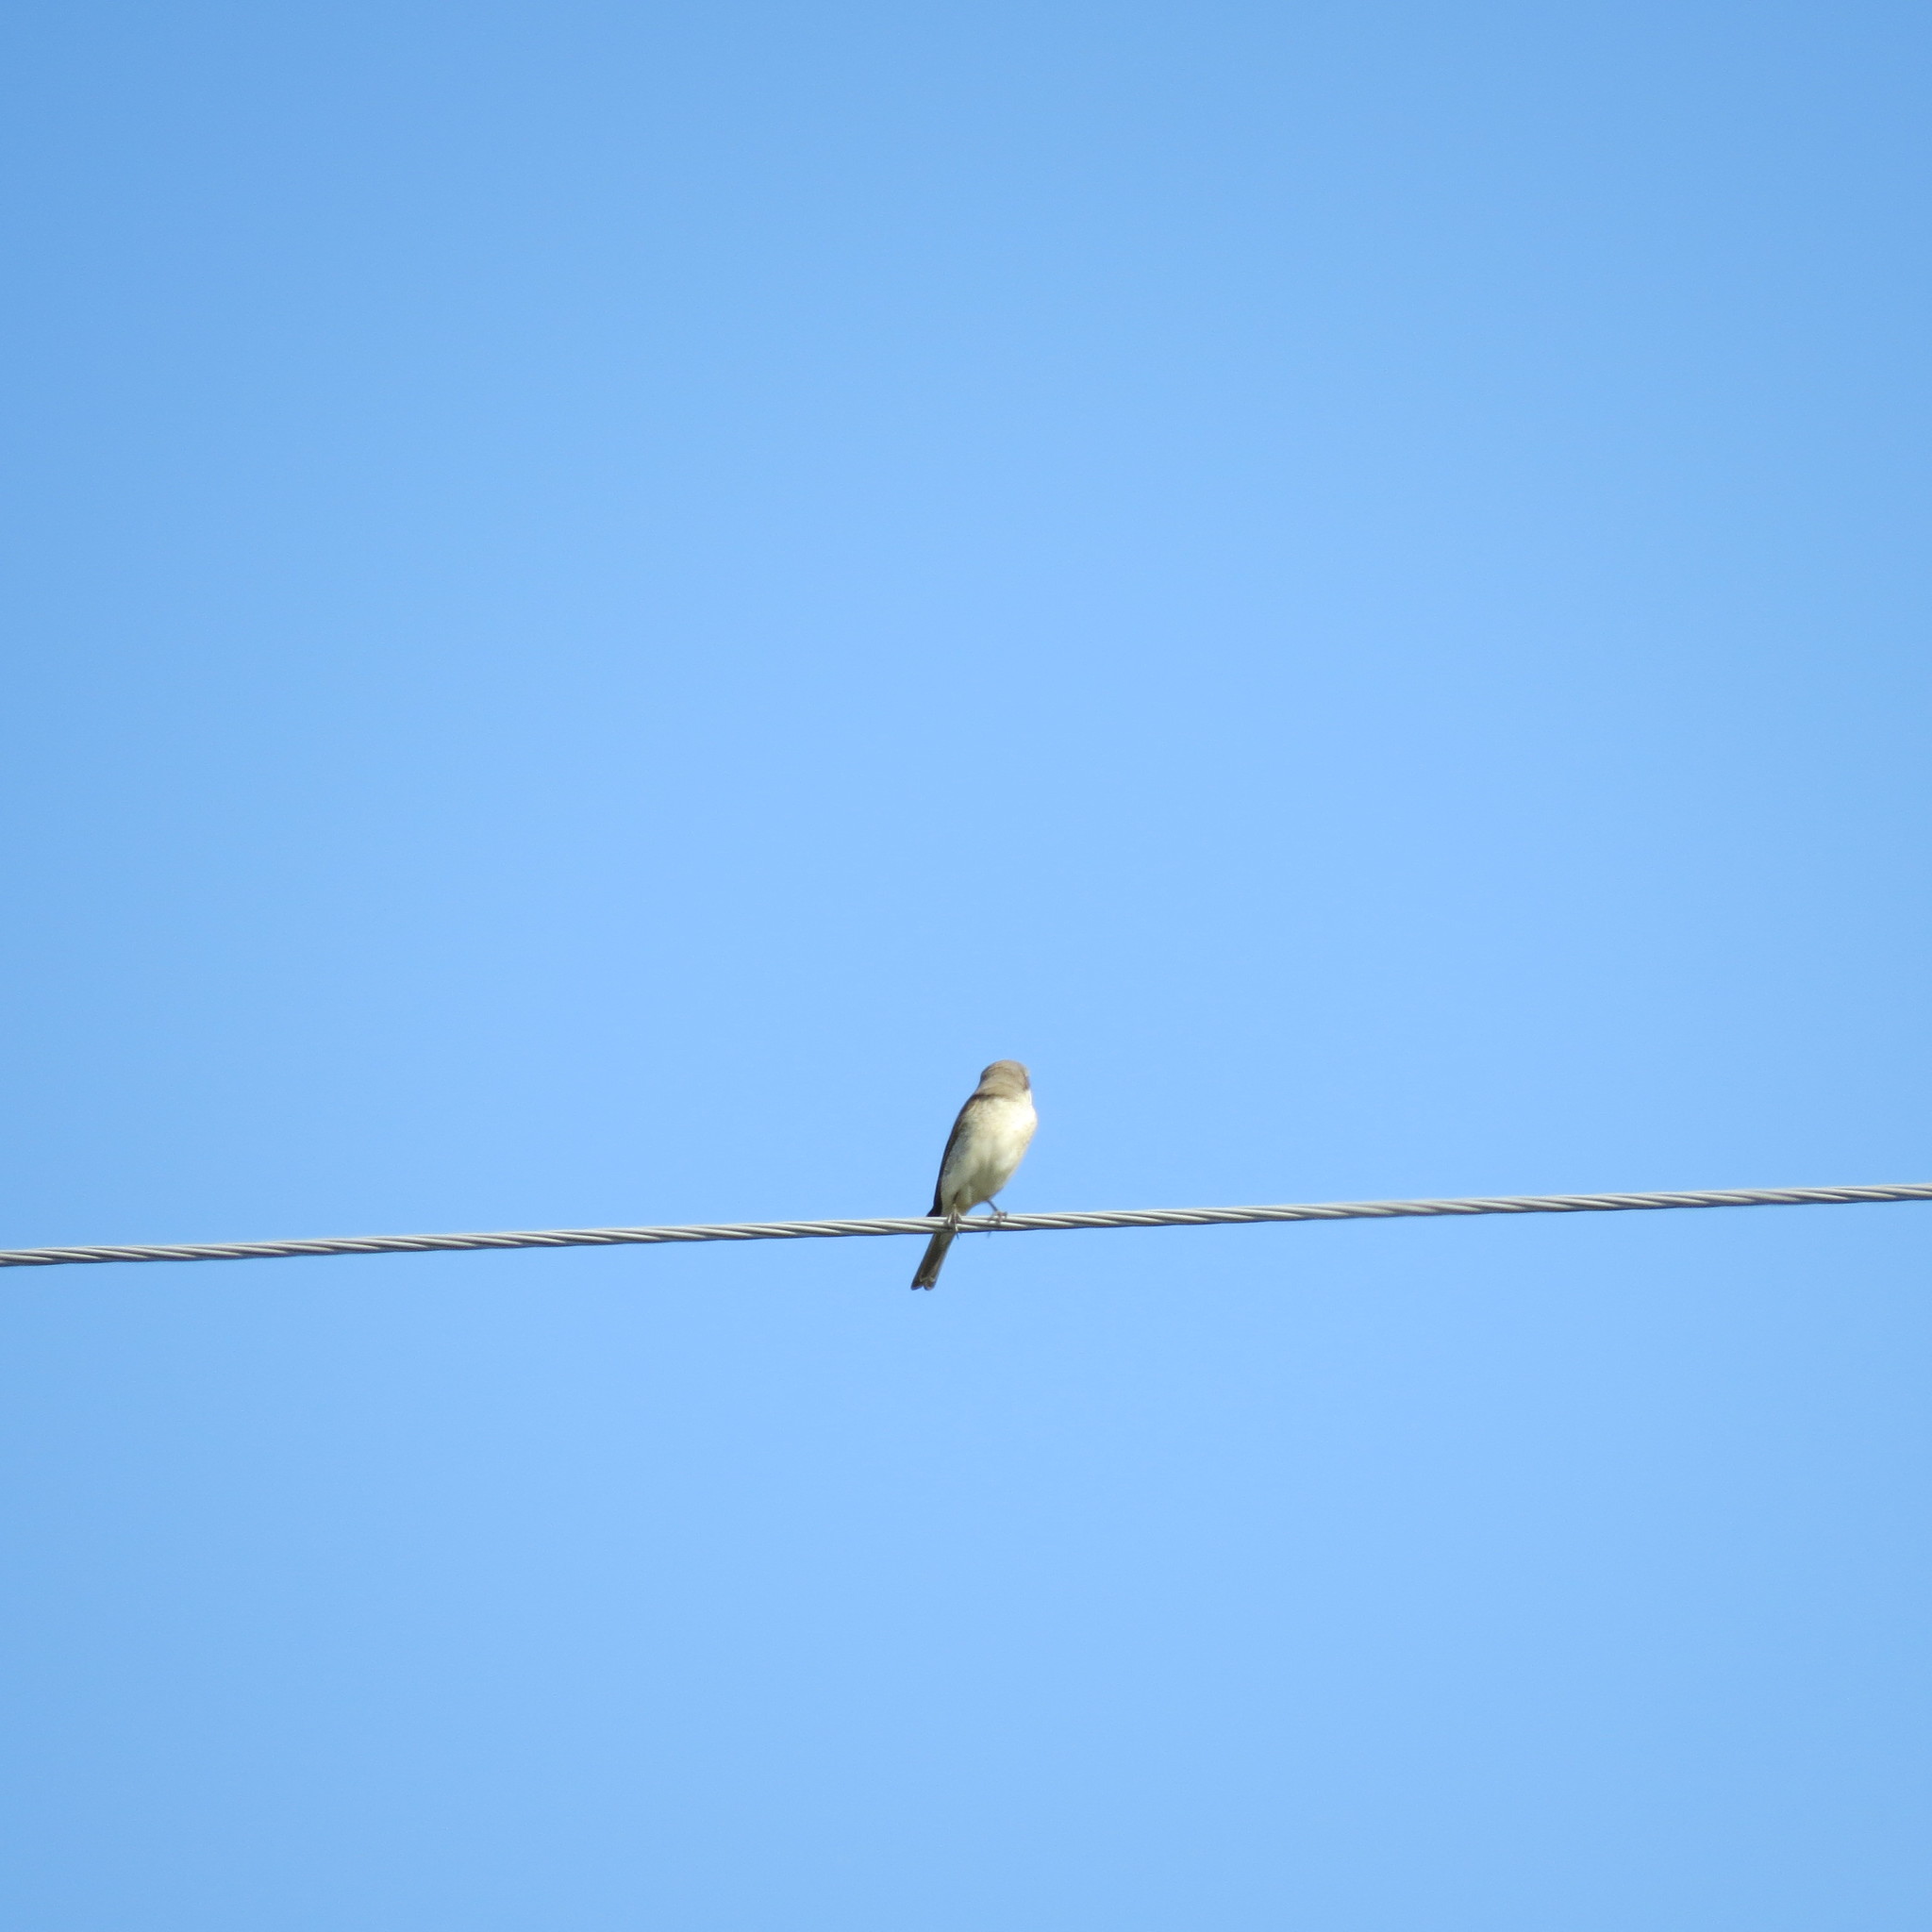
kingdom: Animalia
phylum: Chordata
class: Aves
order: Passeriformes
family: Laniidae
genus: Lanius
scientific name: Lanius collurio
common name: Red-backed shrike
